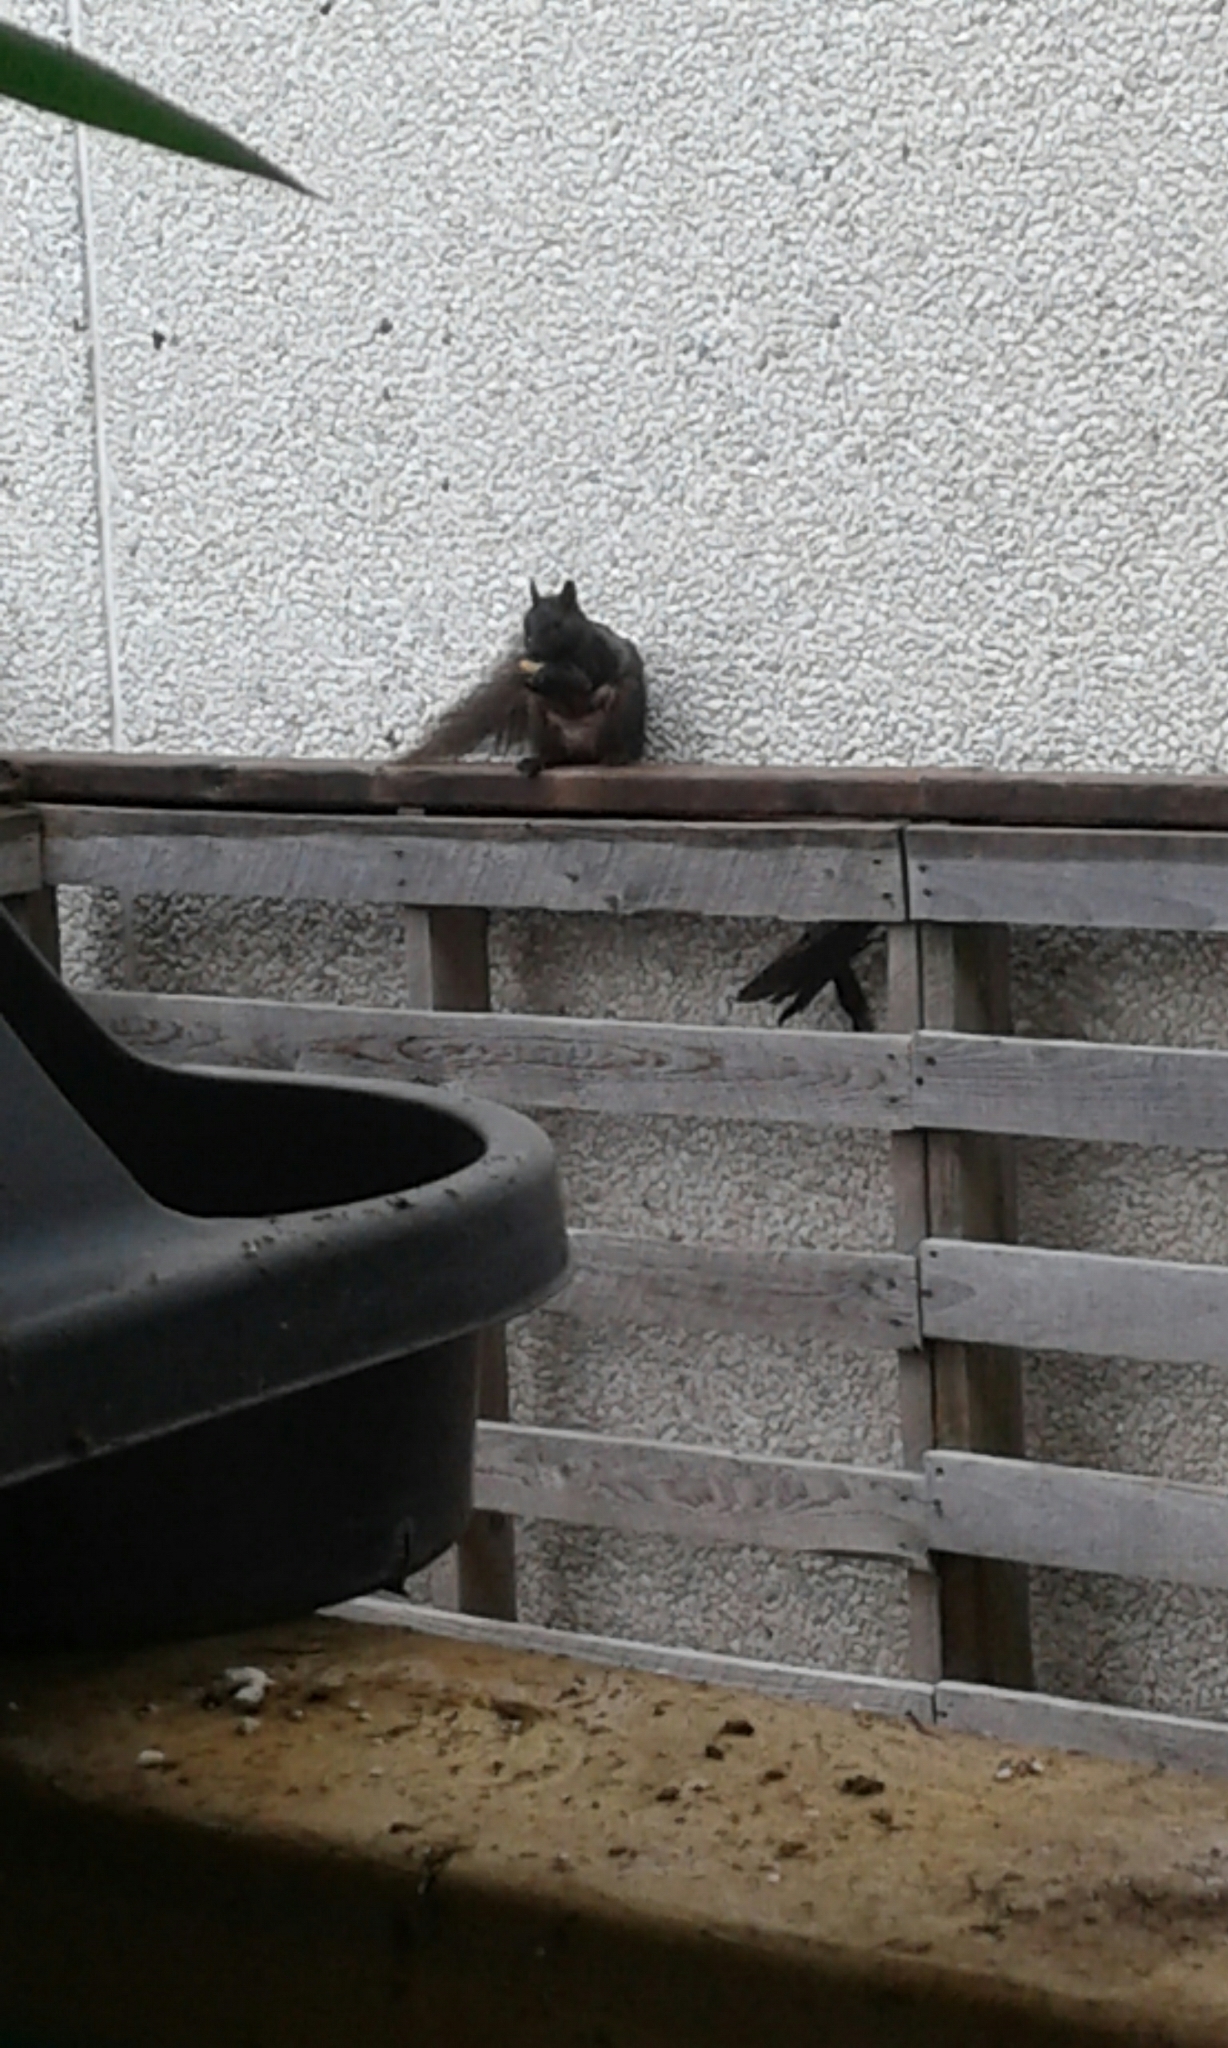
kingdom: Animalia
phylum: Chordata
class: Mammalia
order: Rodentia
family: Sciuridae
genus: Sciurus
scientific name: Sciurus carolinensis
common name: Eastern gray squirrel
